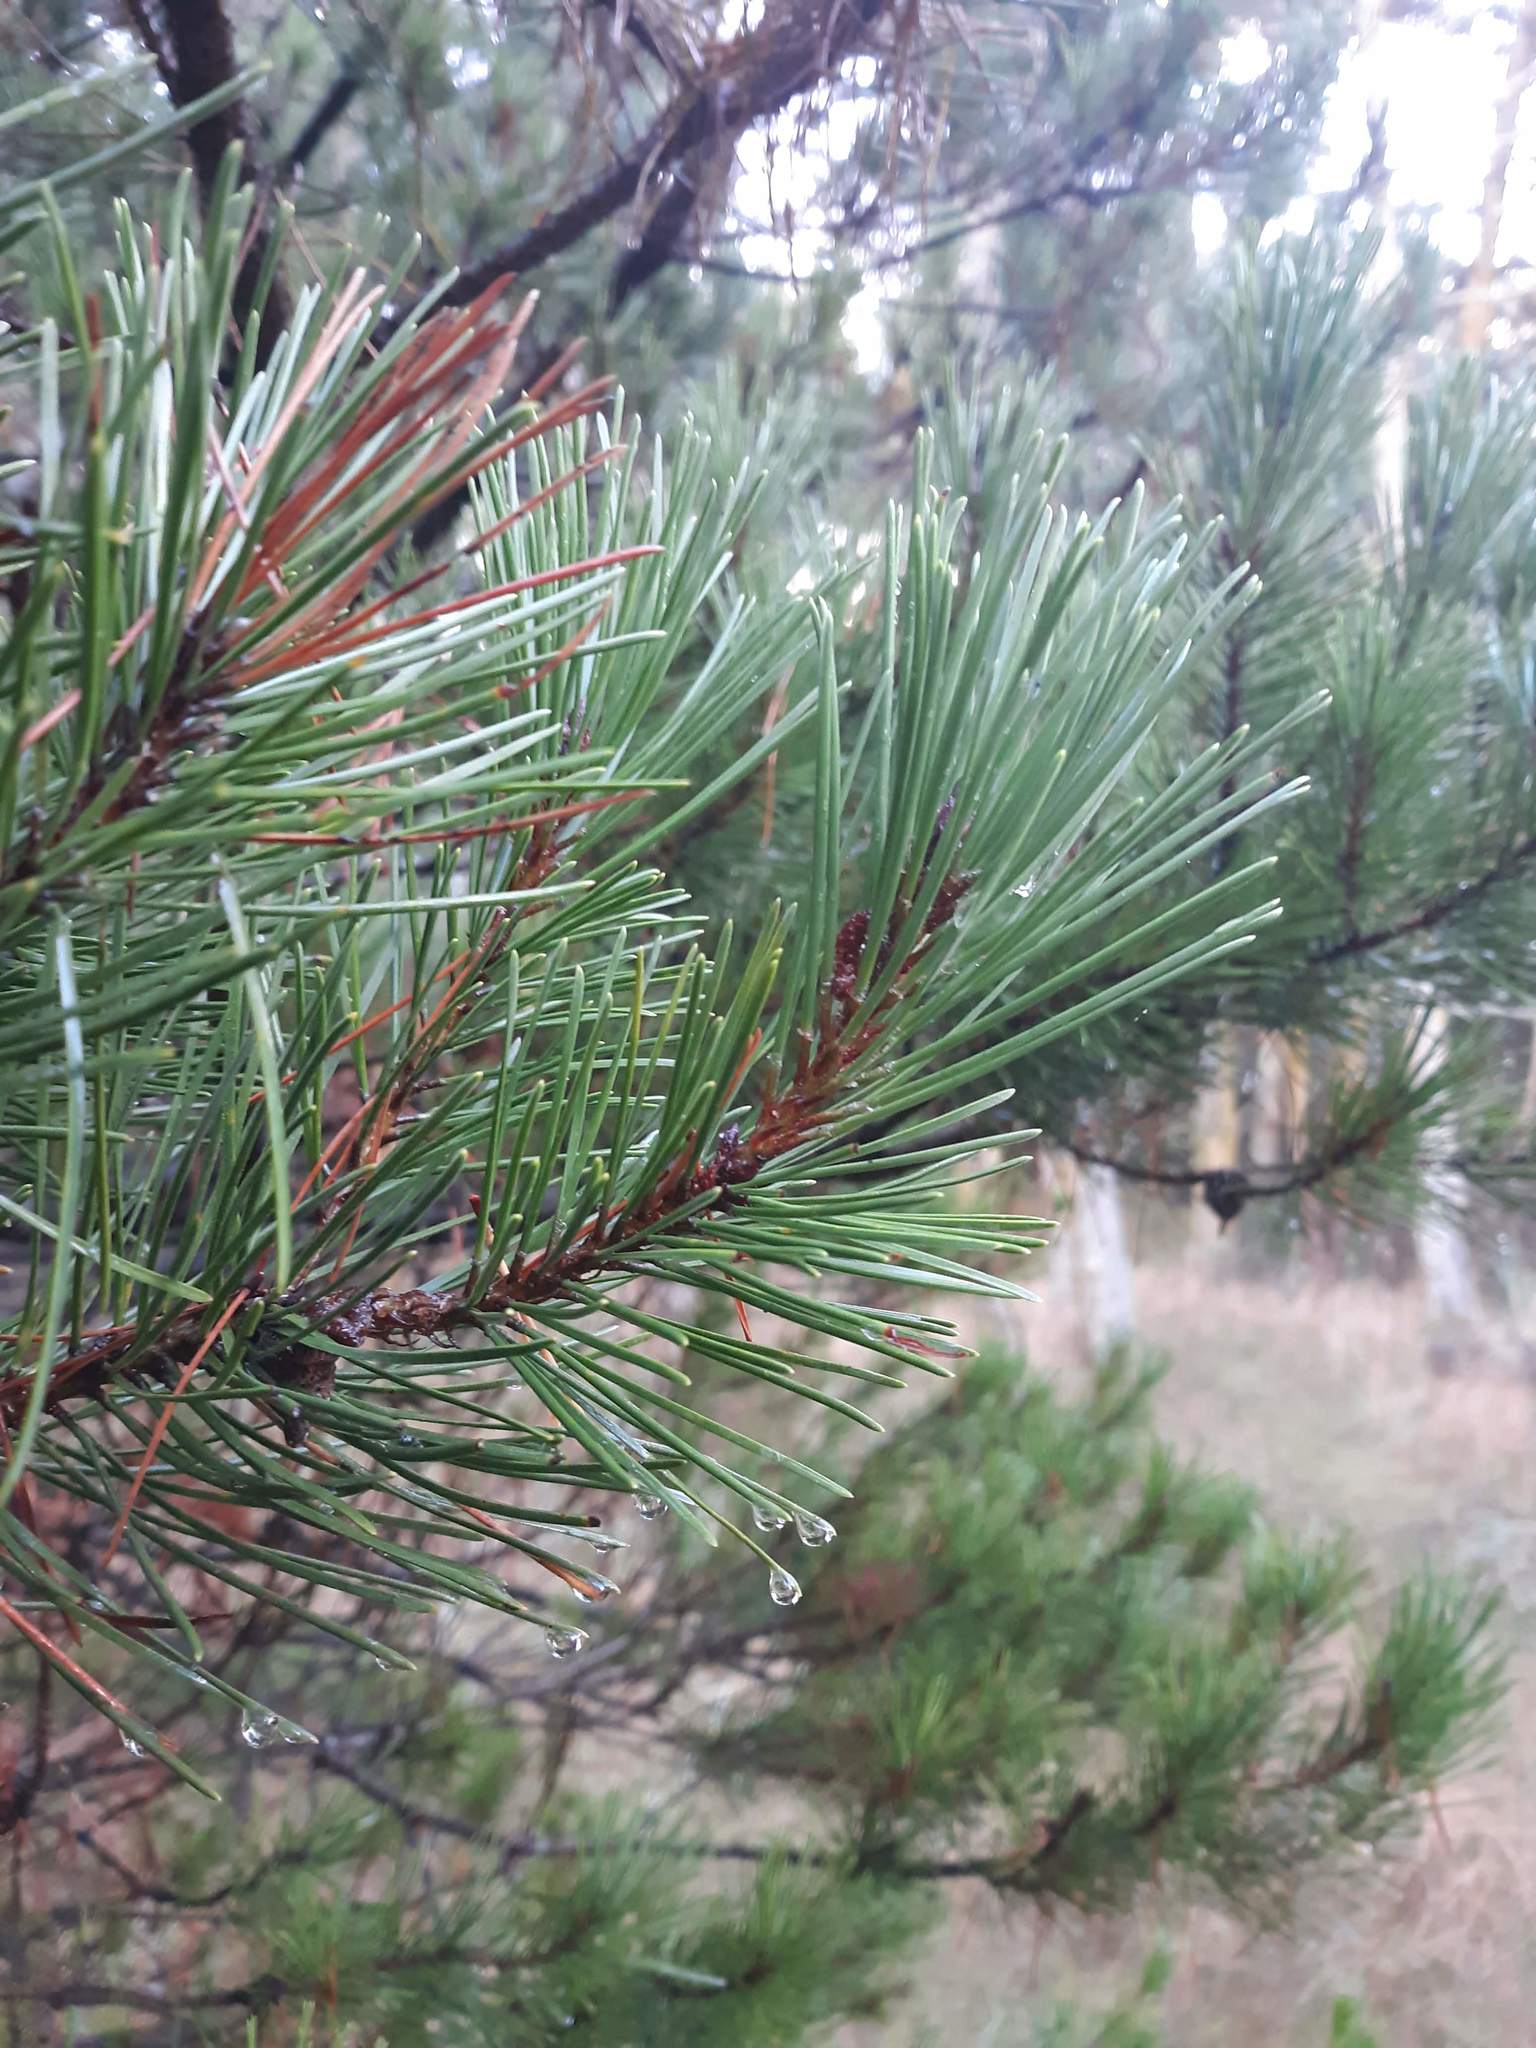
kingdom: Plantae
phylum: Tracheophyta
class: Pinopsida
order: Pinales
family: Pinaceae
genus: Pinus
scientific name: Pinus contorta
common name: Lodgepole pine
